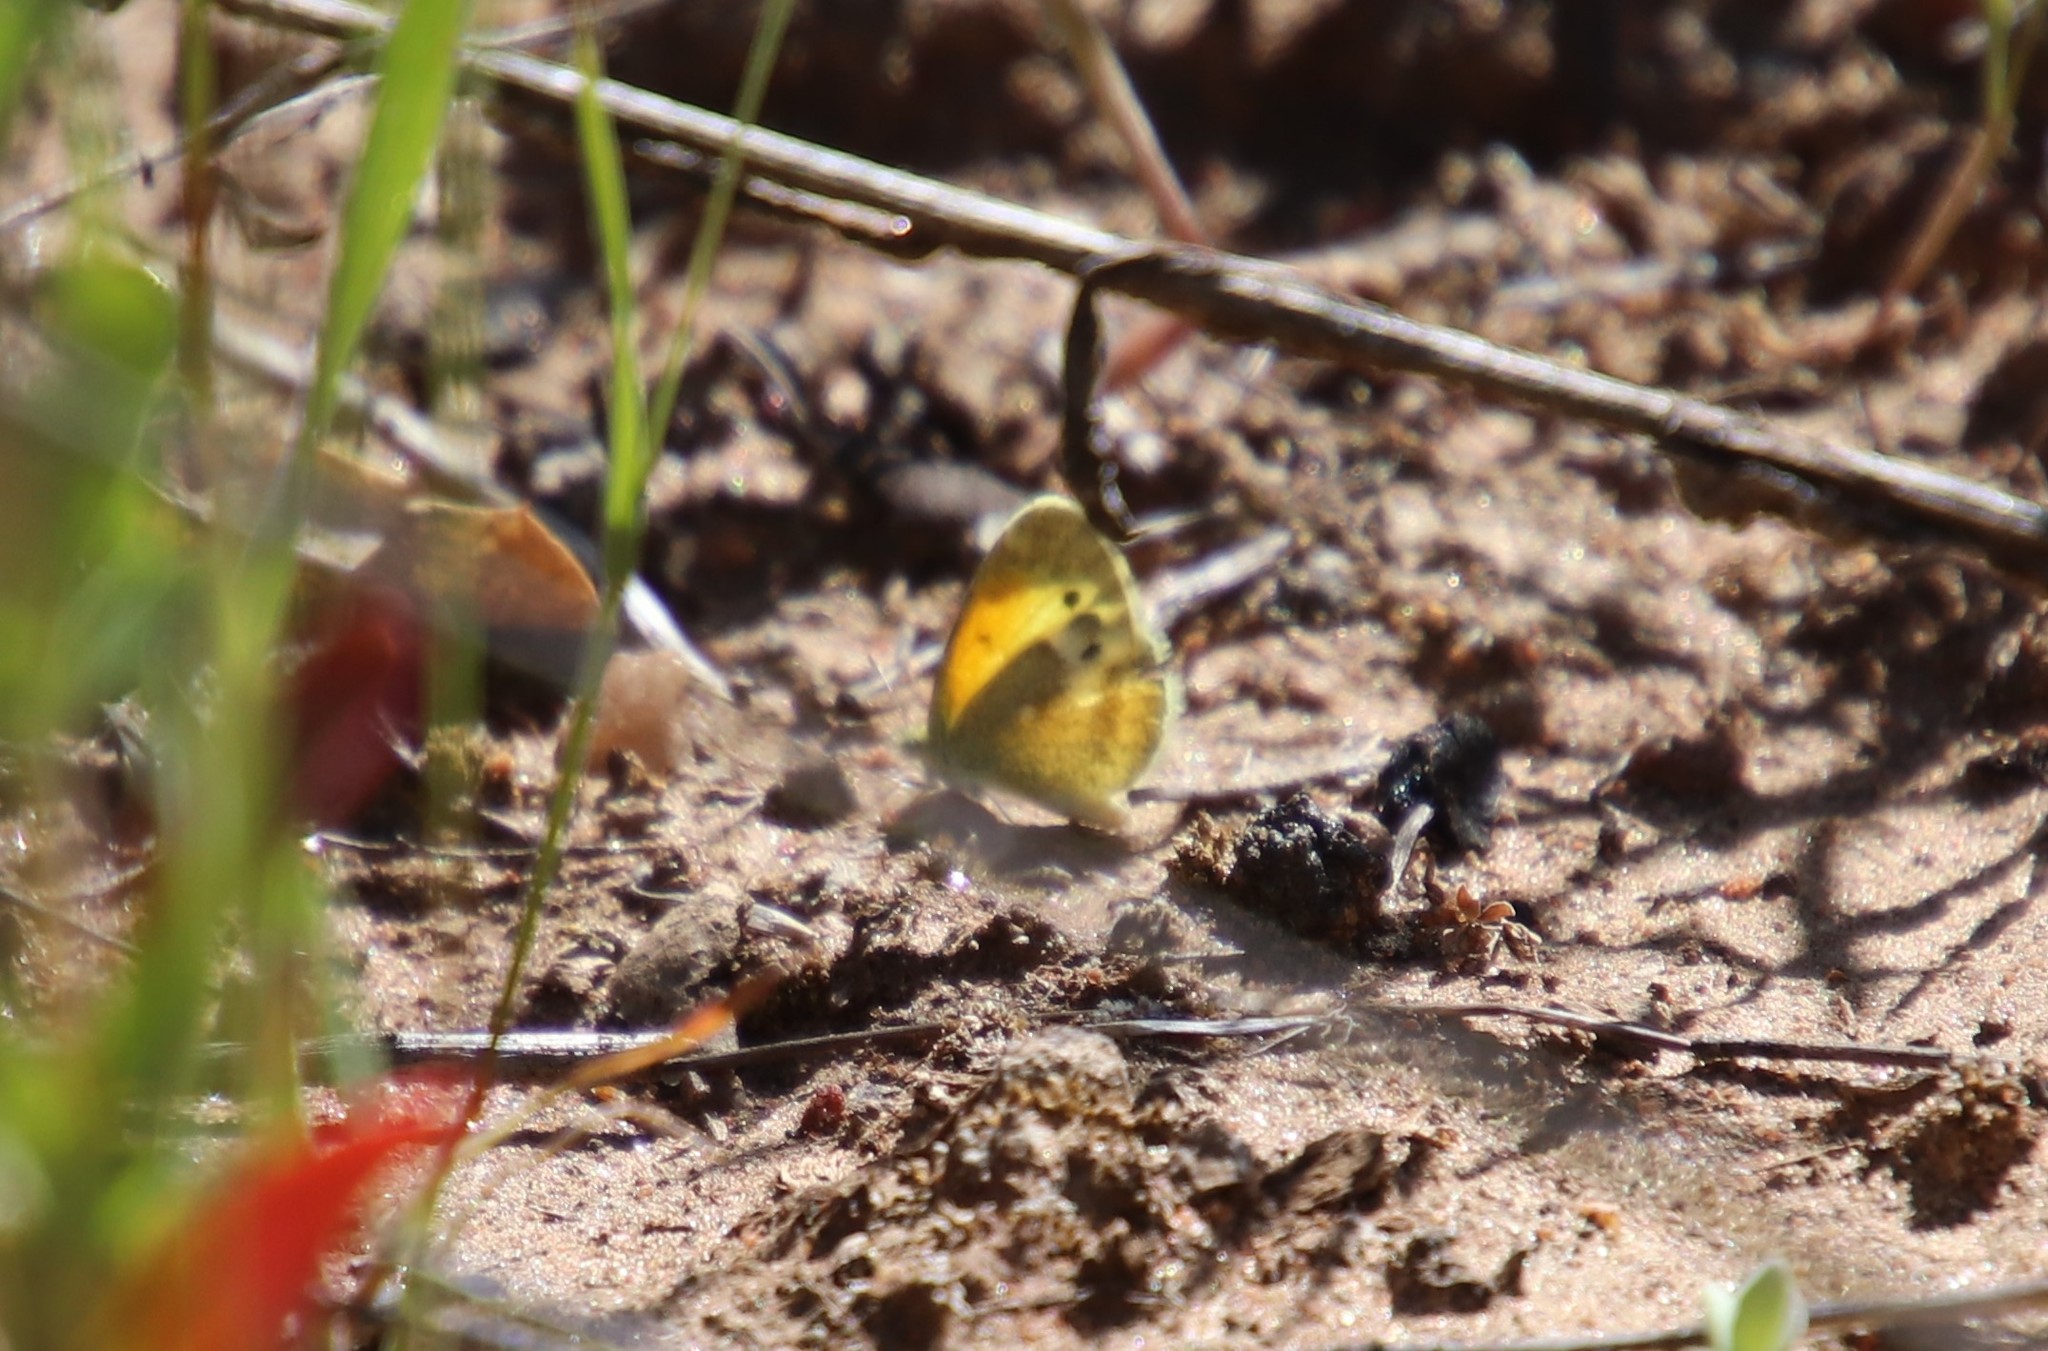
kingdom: Animalia
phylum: Arthropoda
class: Insecta
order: Lepidoptera
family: Pieridae
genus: Nathalis
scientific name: Nathalis iole
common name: Dainty sulphur
